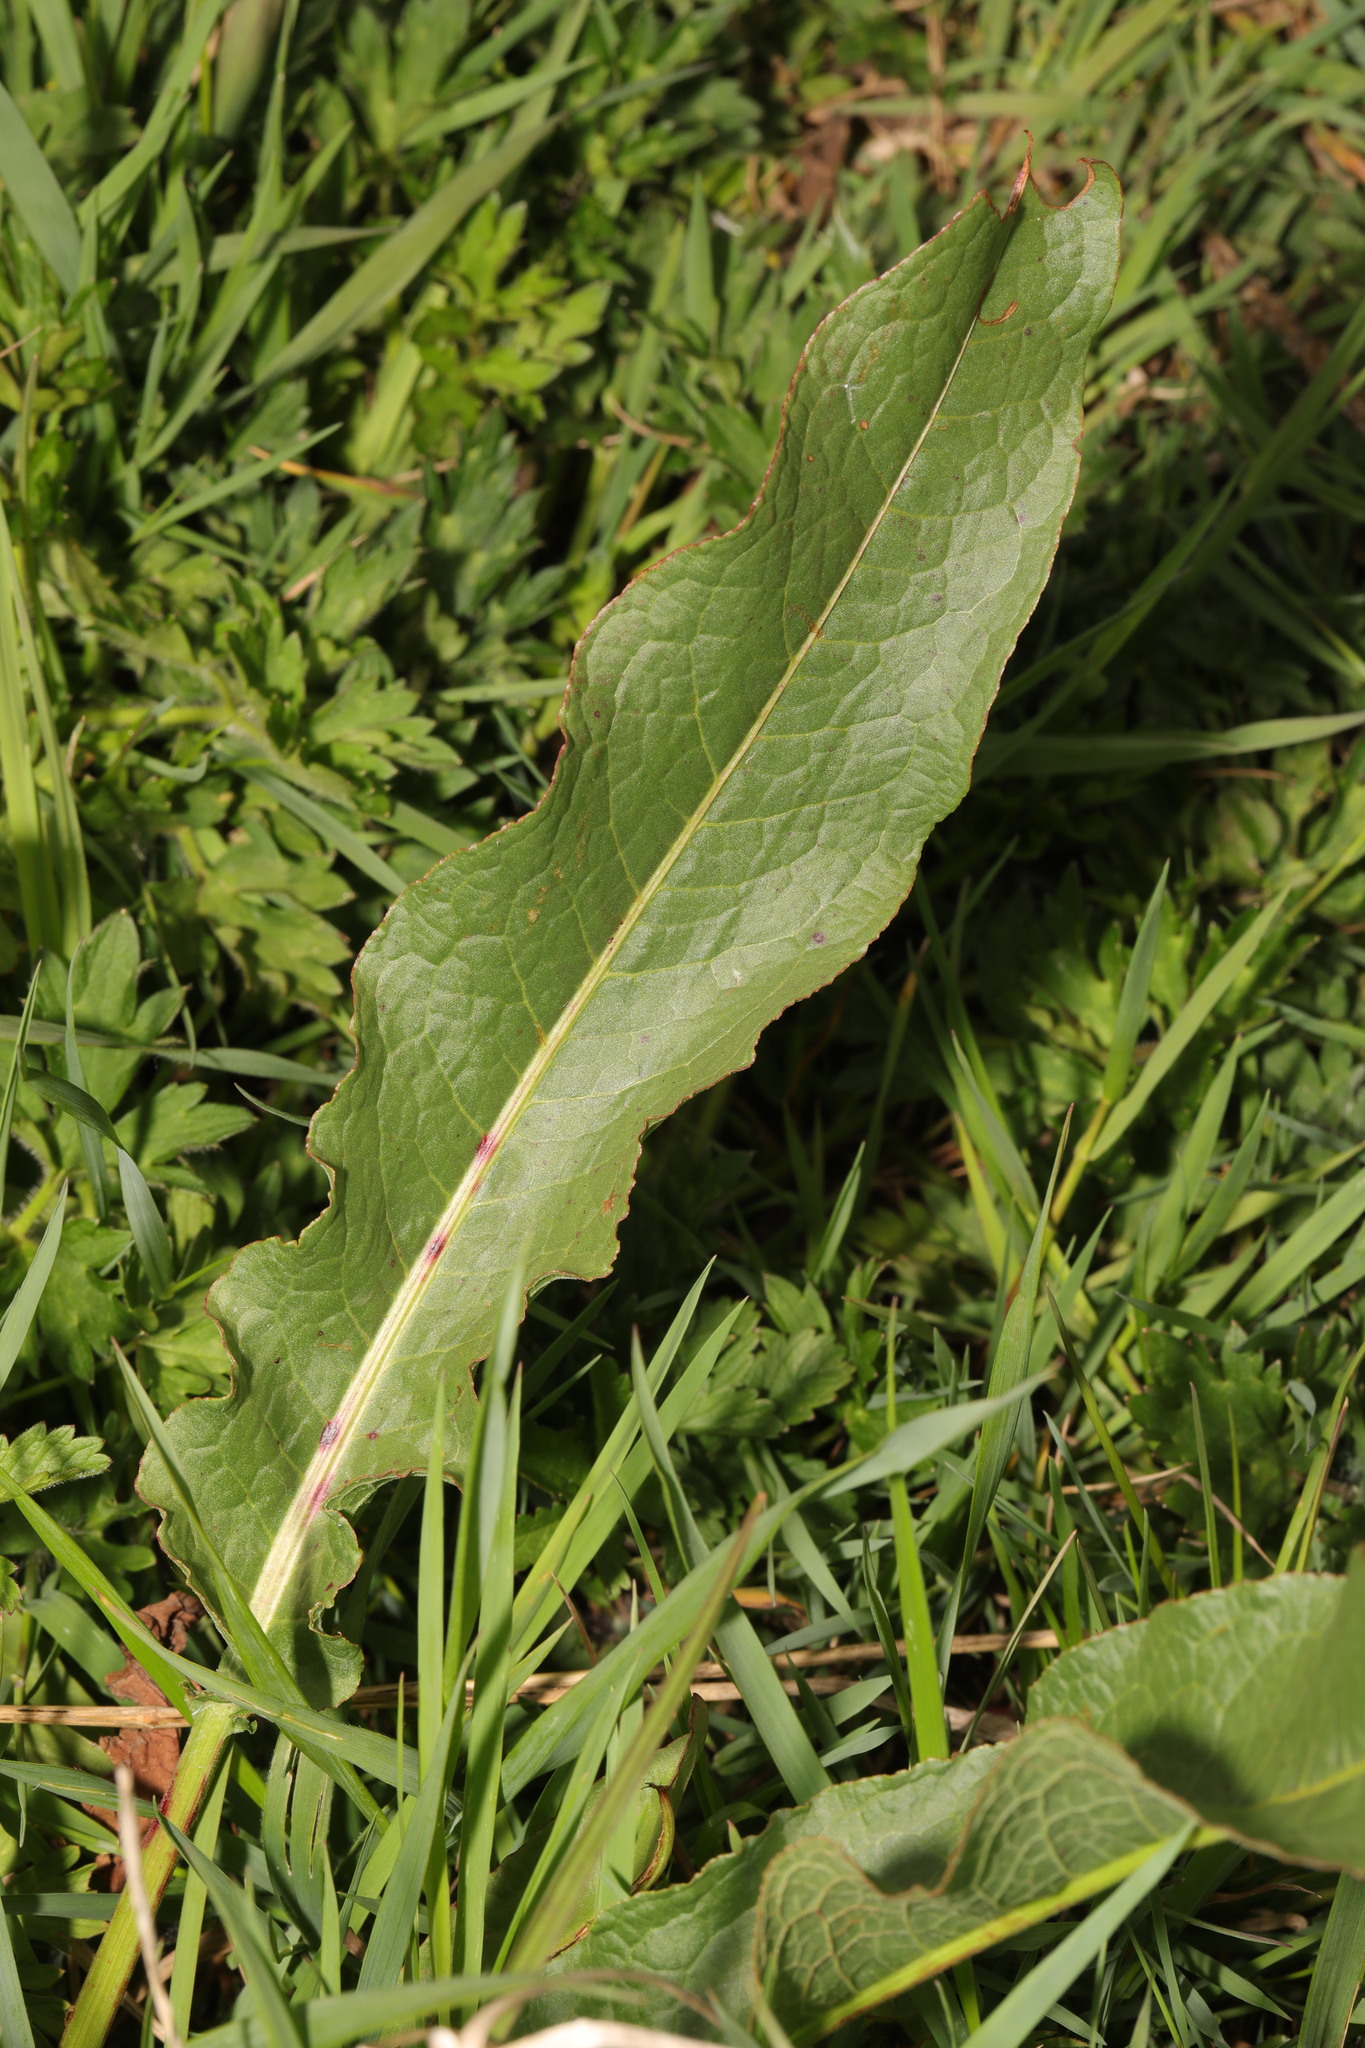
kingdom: Plantae
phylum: Tracheophyta
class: Magnoliopsida
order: Caryophyllales
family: Polygonaceae
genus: Rumex
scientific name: Rumex crispus
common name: Curled dock
